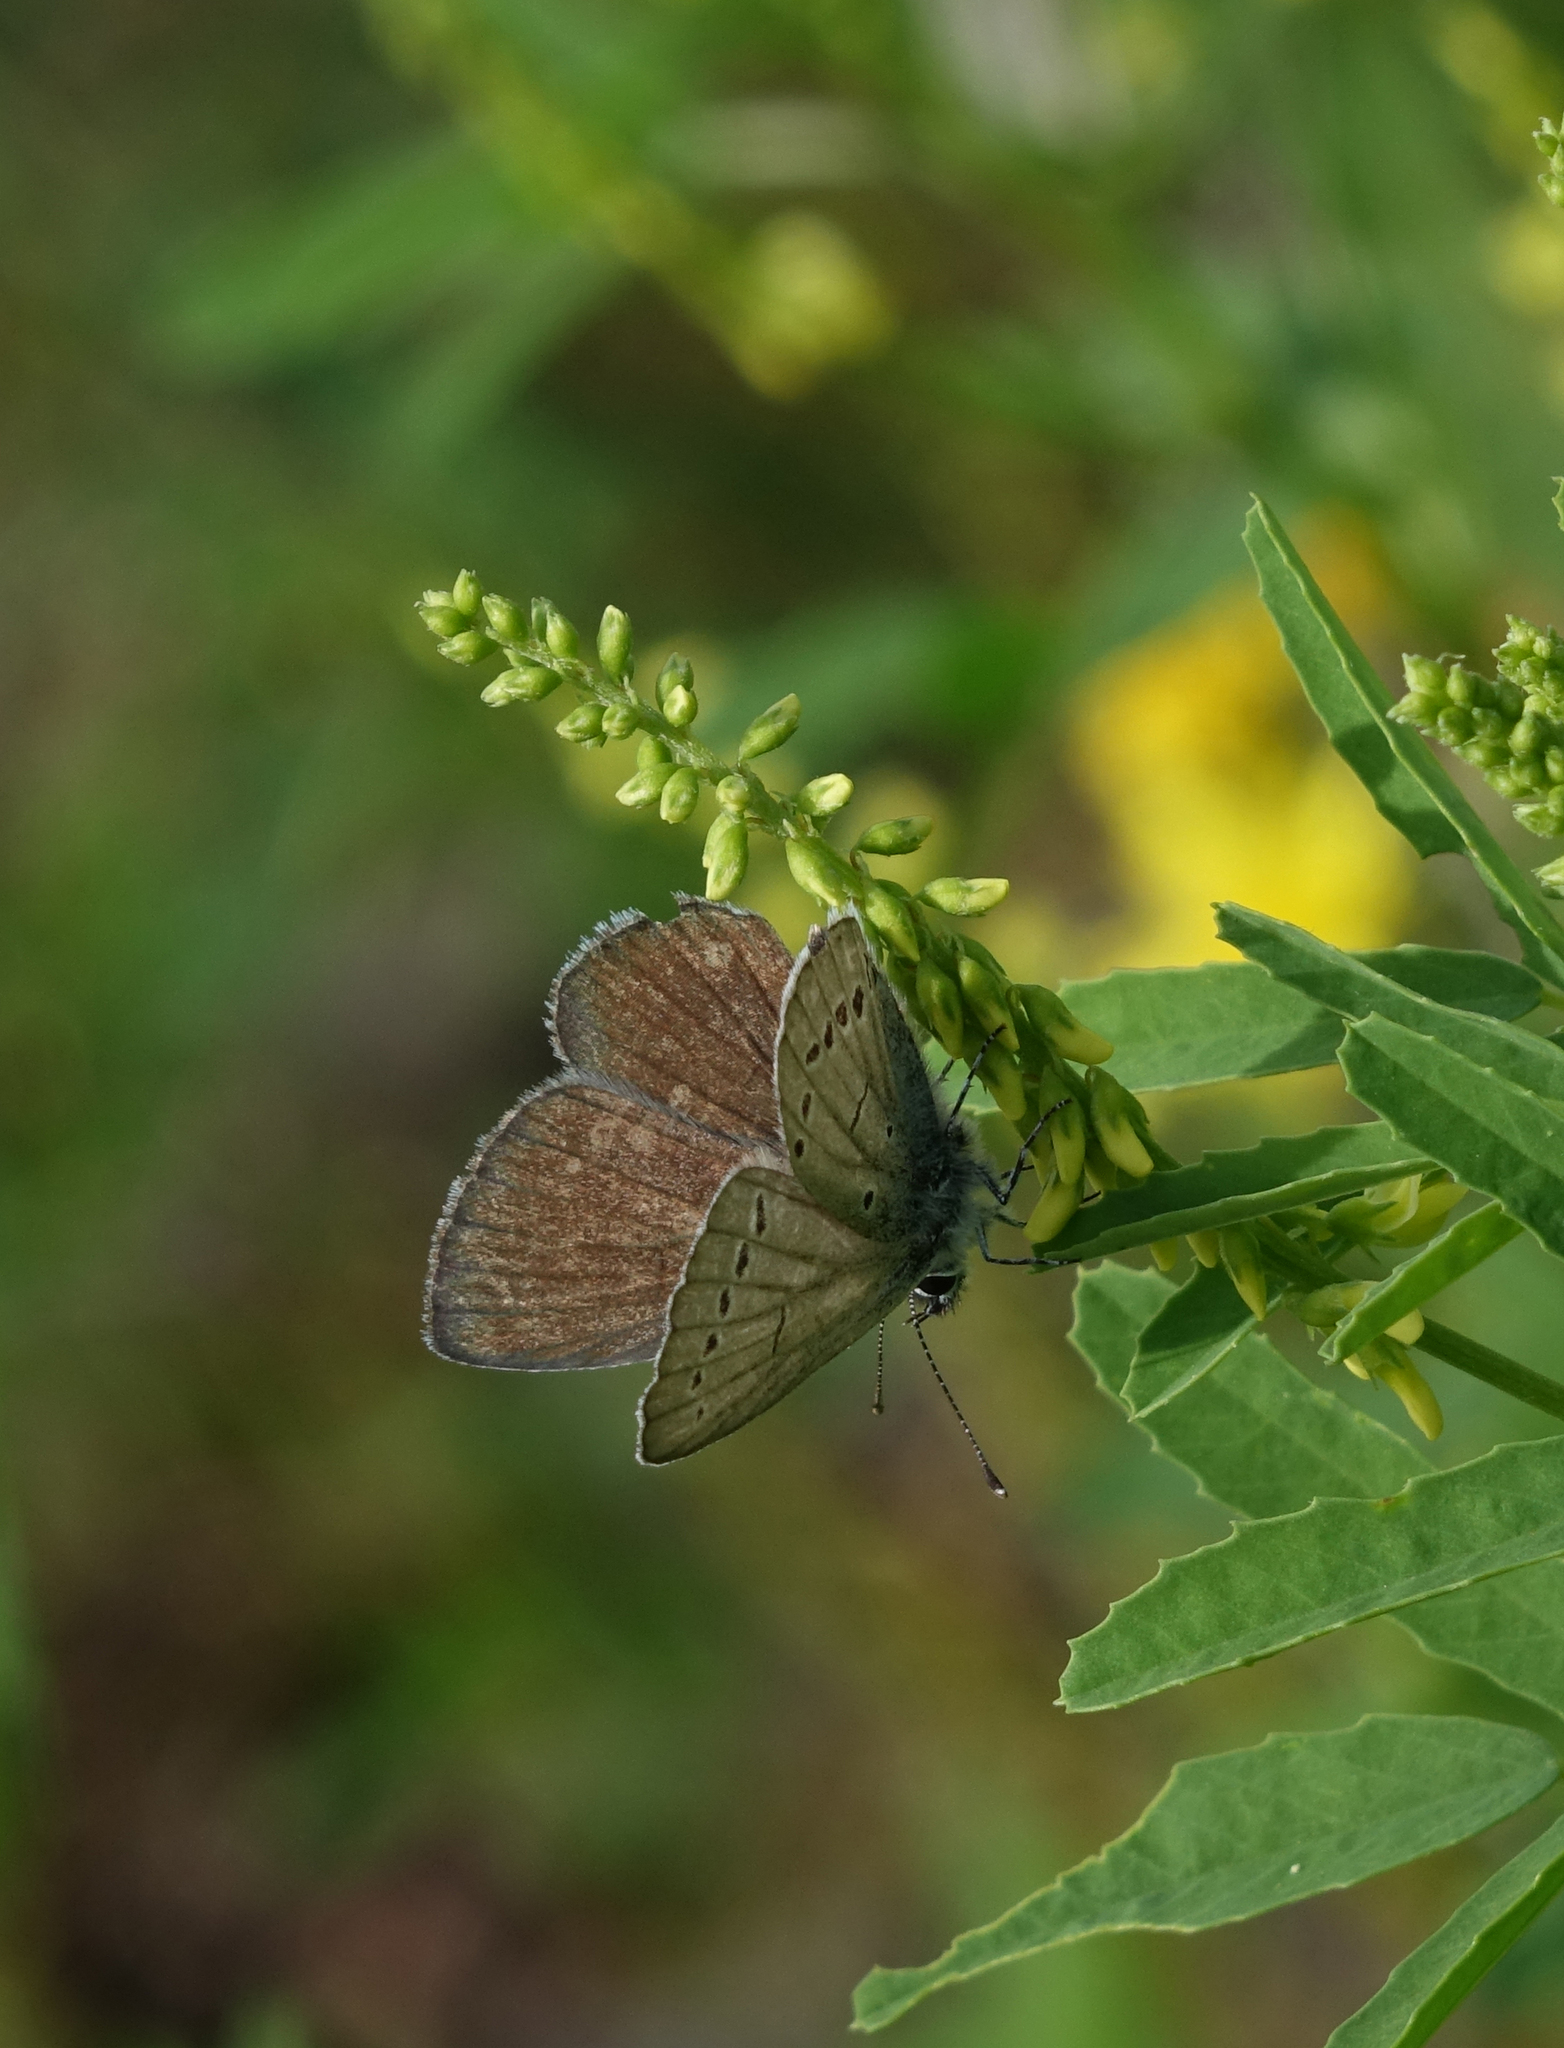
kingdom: Animalia
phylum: Arthropoda
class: Insecta
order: Lepidoptera
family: Lycaenidae
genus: Cupido
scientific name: Cupido minimus
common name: Small blue
